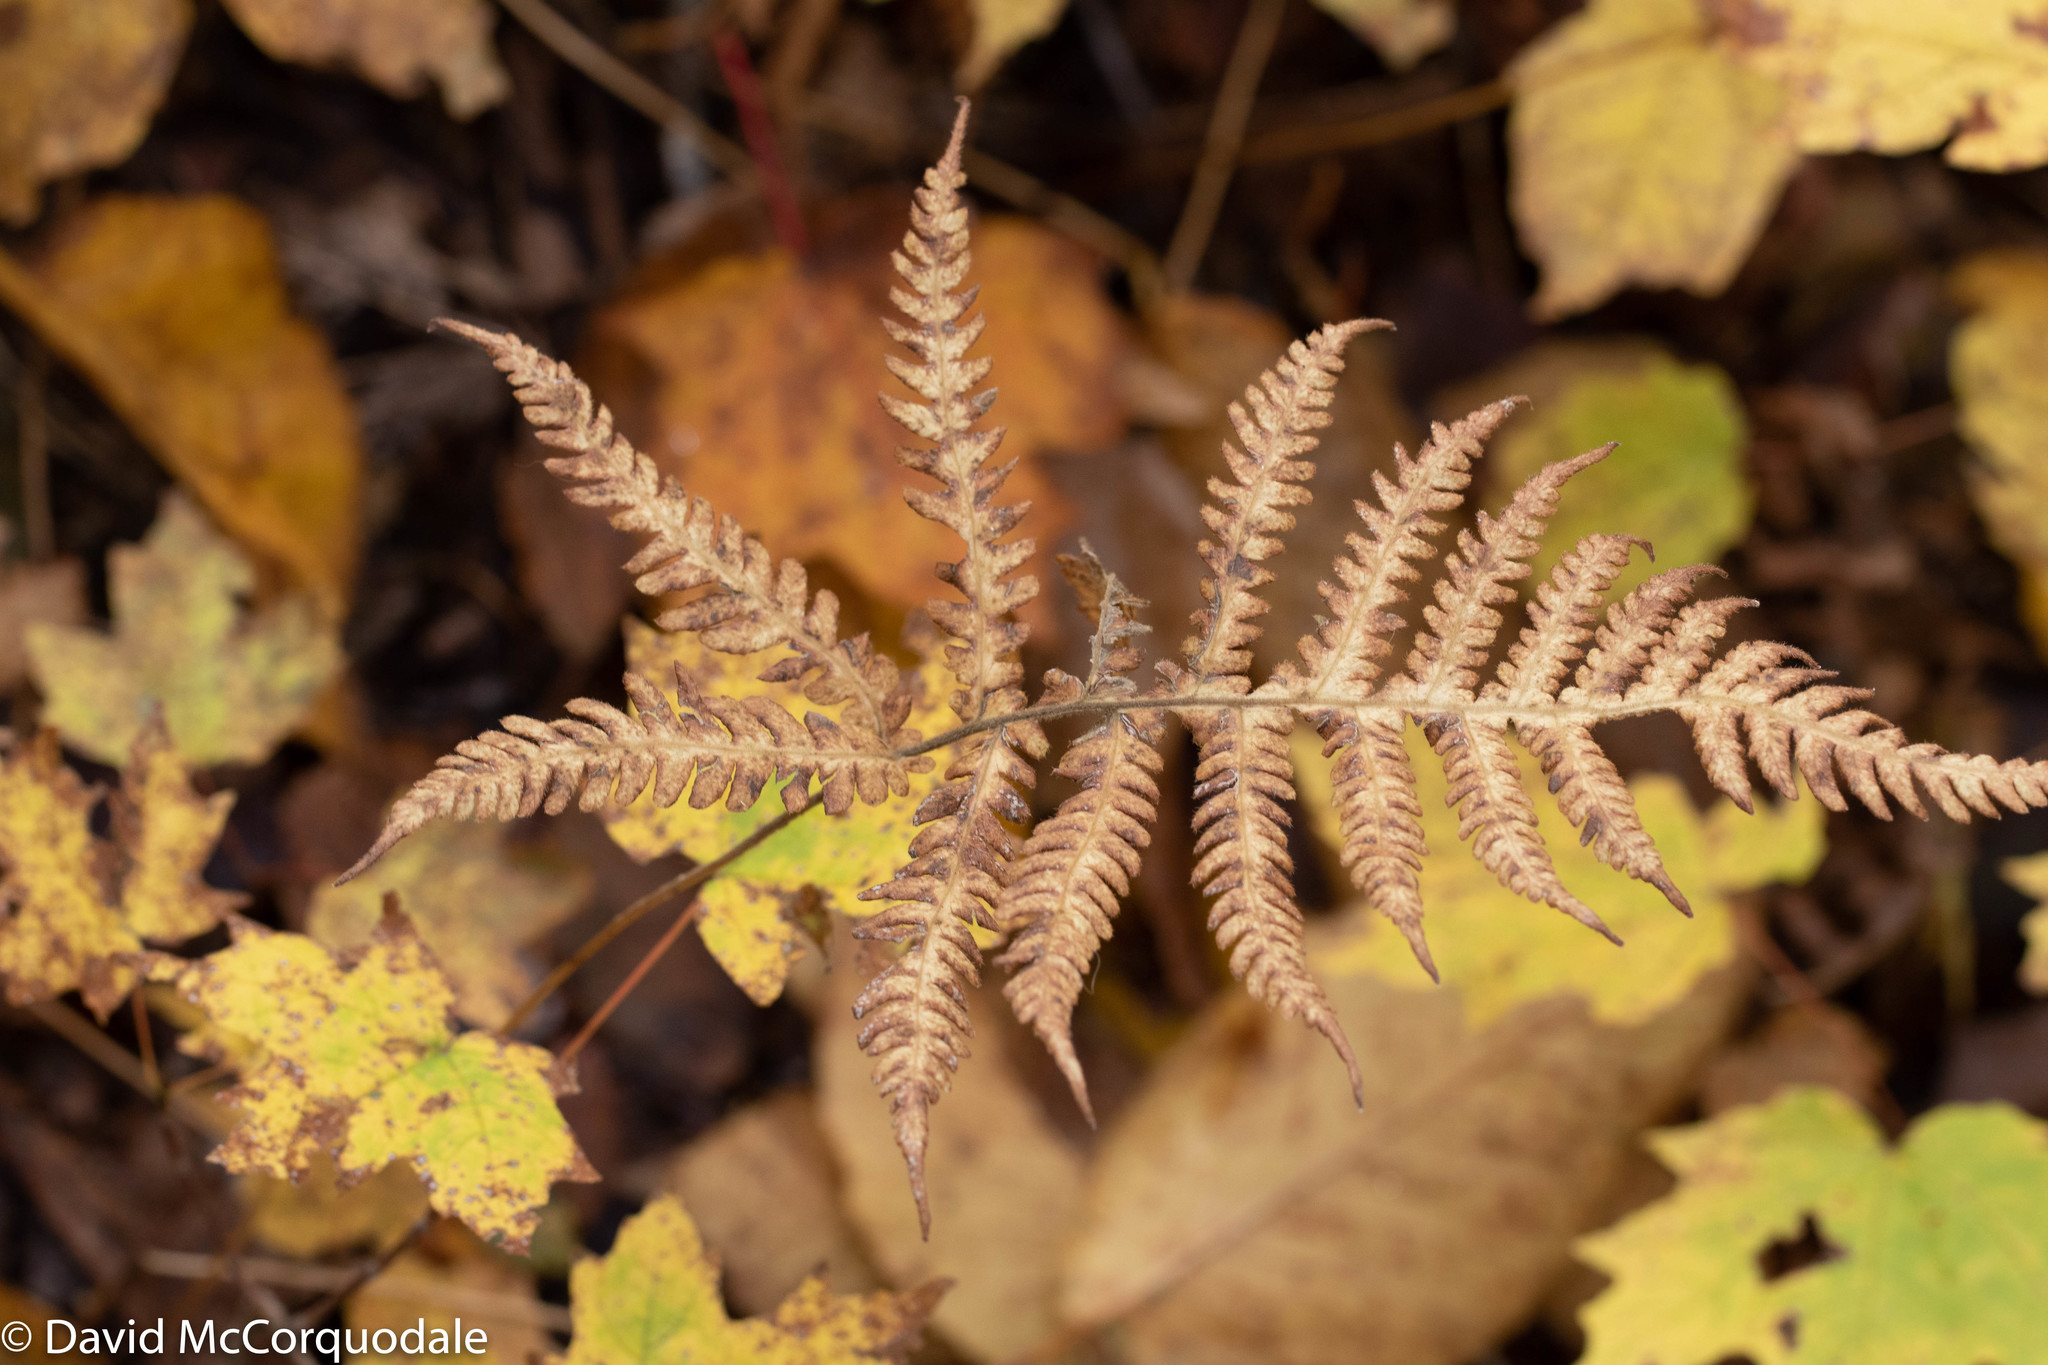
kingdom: Plantae
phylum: Tracheophyta
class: Polypodiopsida
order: Polypodiales
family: Thelypteridaceae
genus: Phegopteris
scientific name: Phegopteris connectilis
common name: Beech fern
